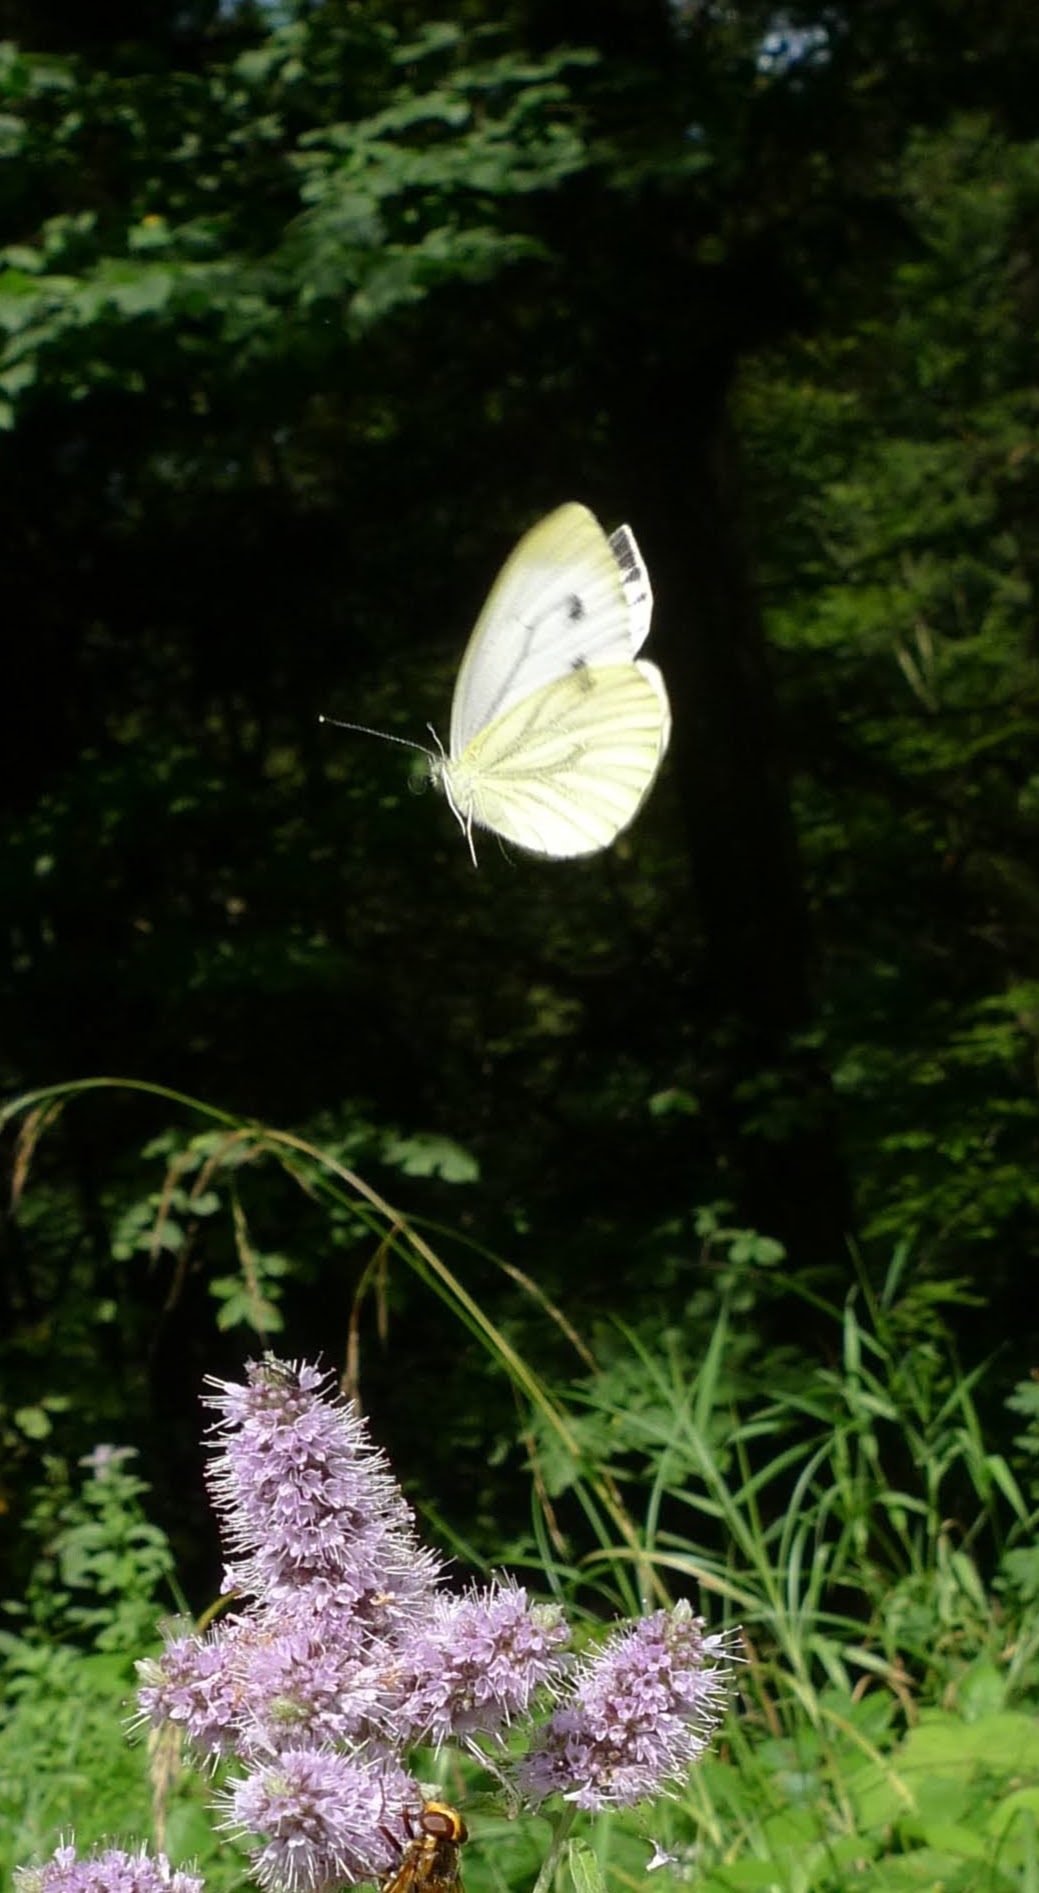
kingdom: Animalia
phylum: Arthropoda
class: Insecta
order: Lepidoptera
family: Pieridae
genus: Pieris
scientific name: Pieris napi
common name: Green-veined white
